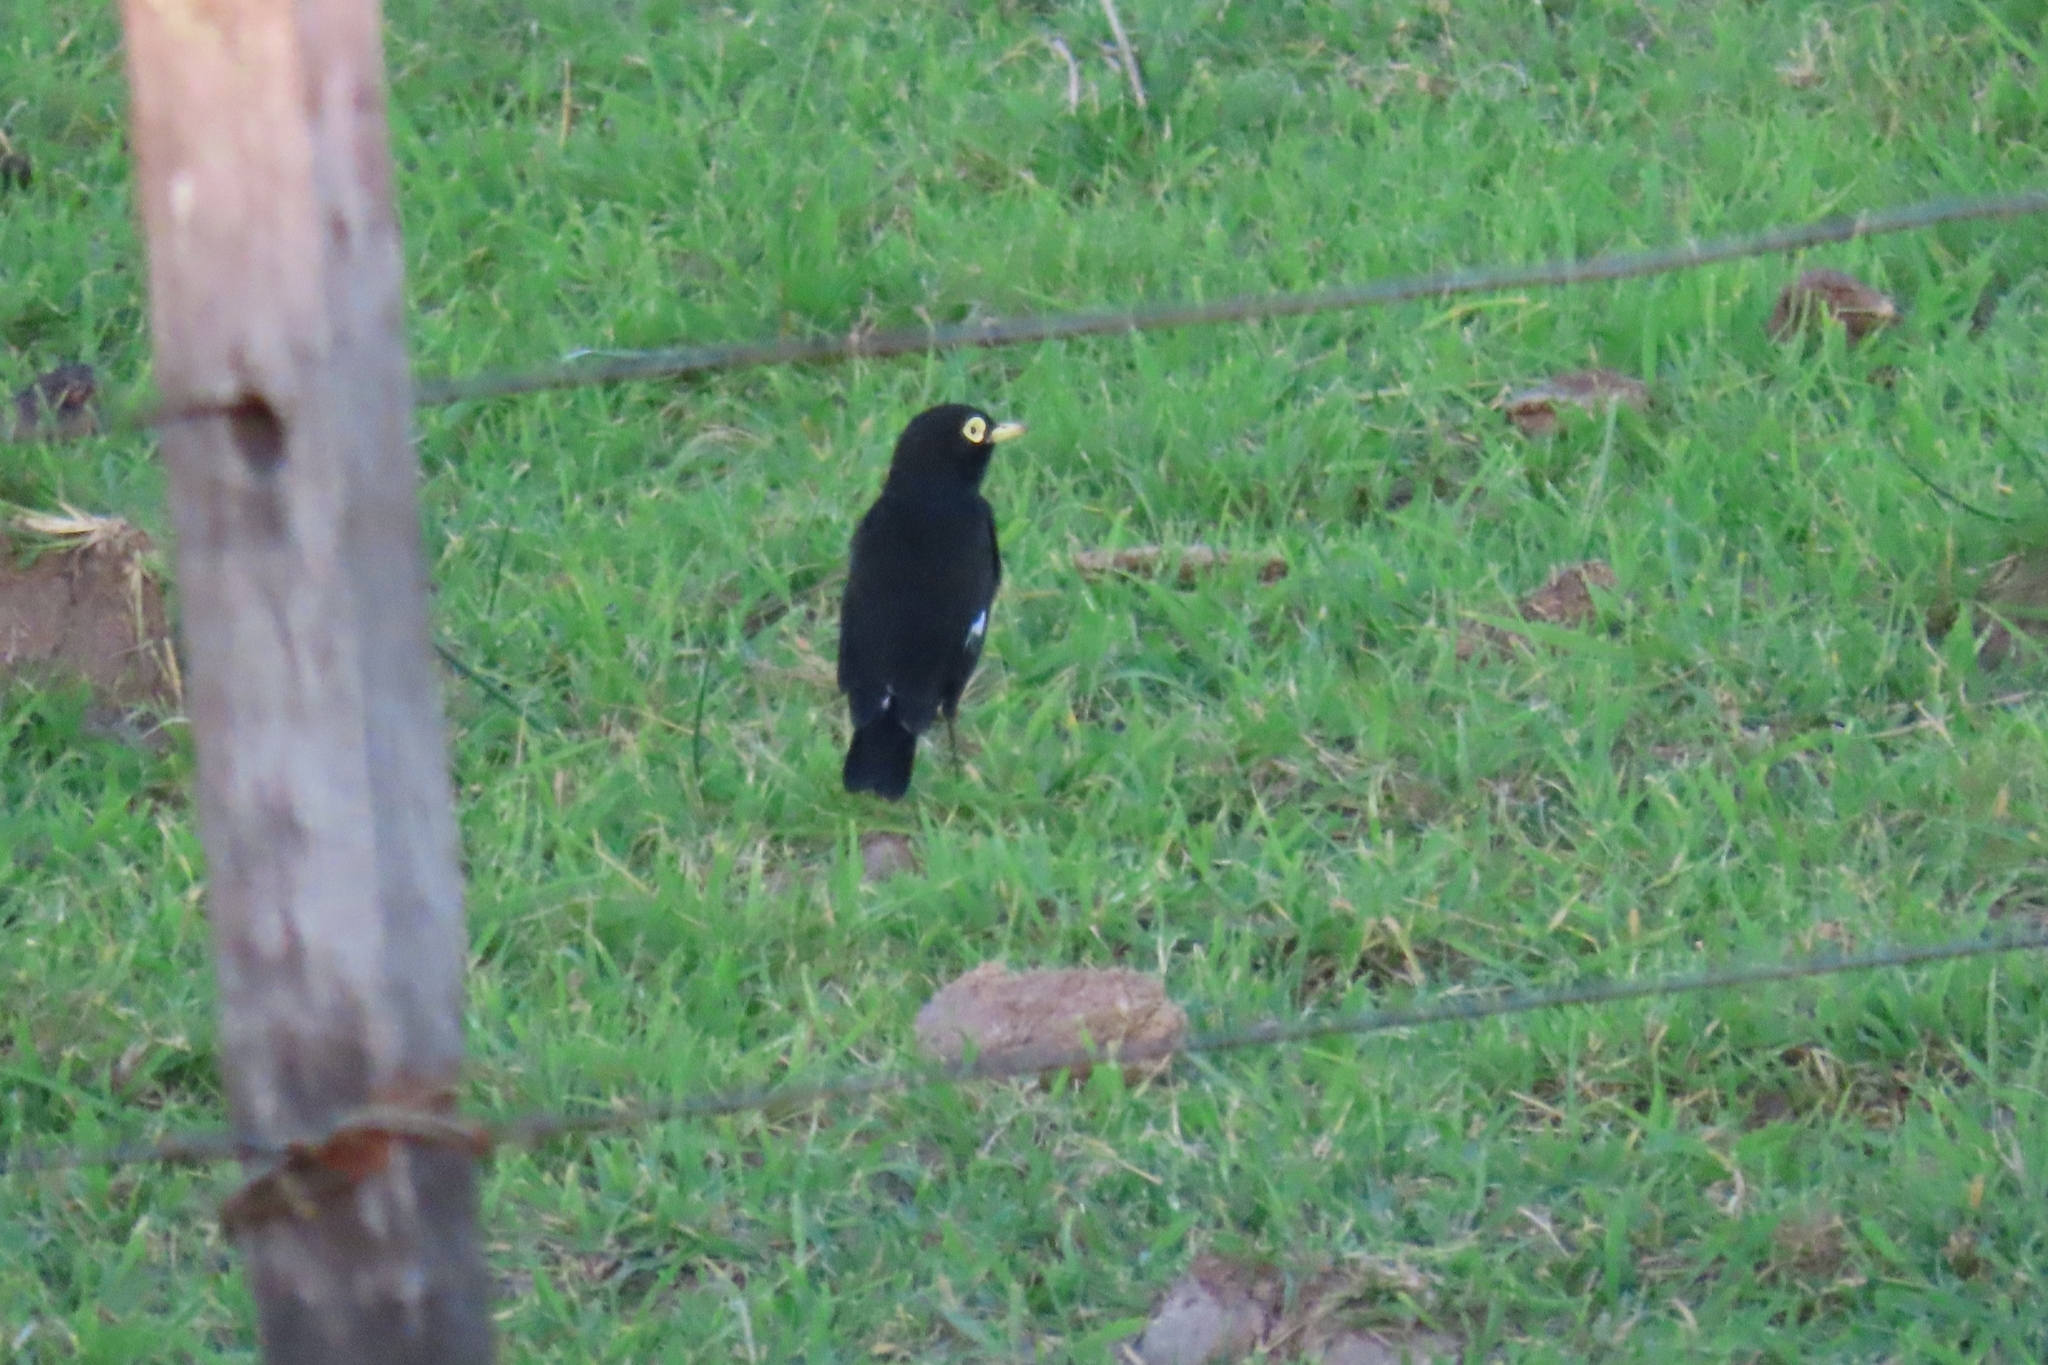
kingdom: Animalia
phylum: Chordata
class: Aves
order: Passeriformes
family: Tyrannidae
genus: Hymenops
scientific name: Hymenops perspicillatus
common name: Spectacled tyrant
